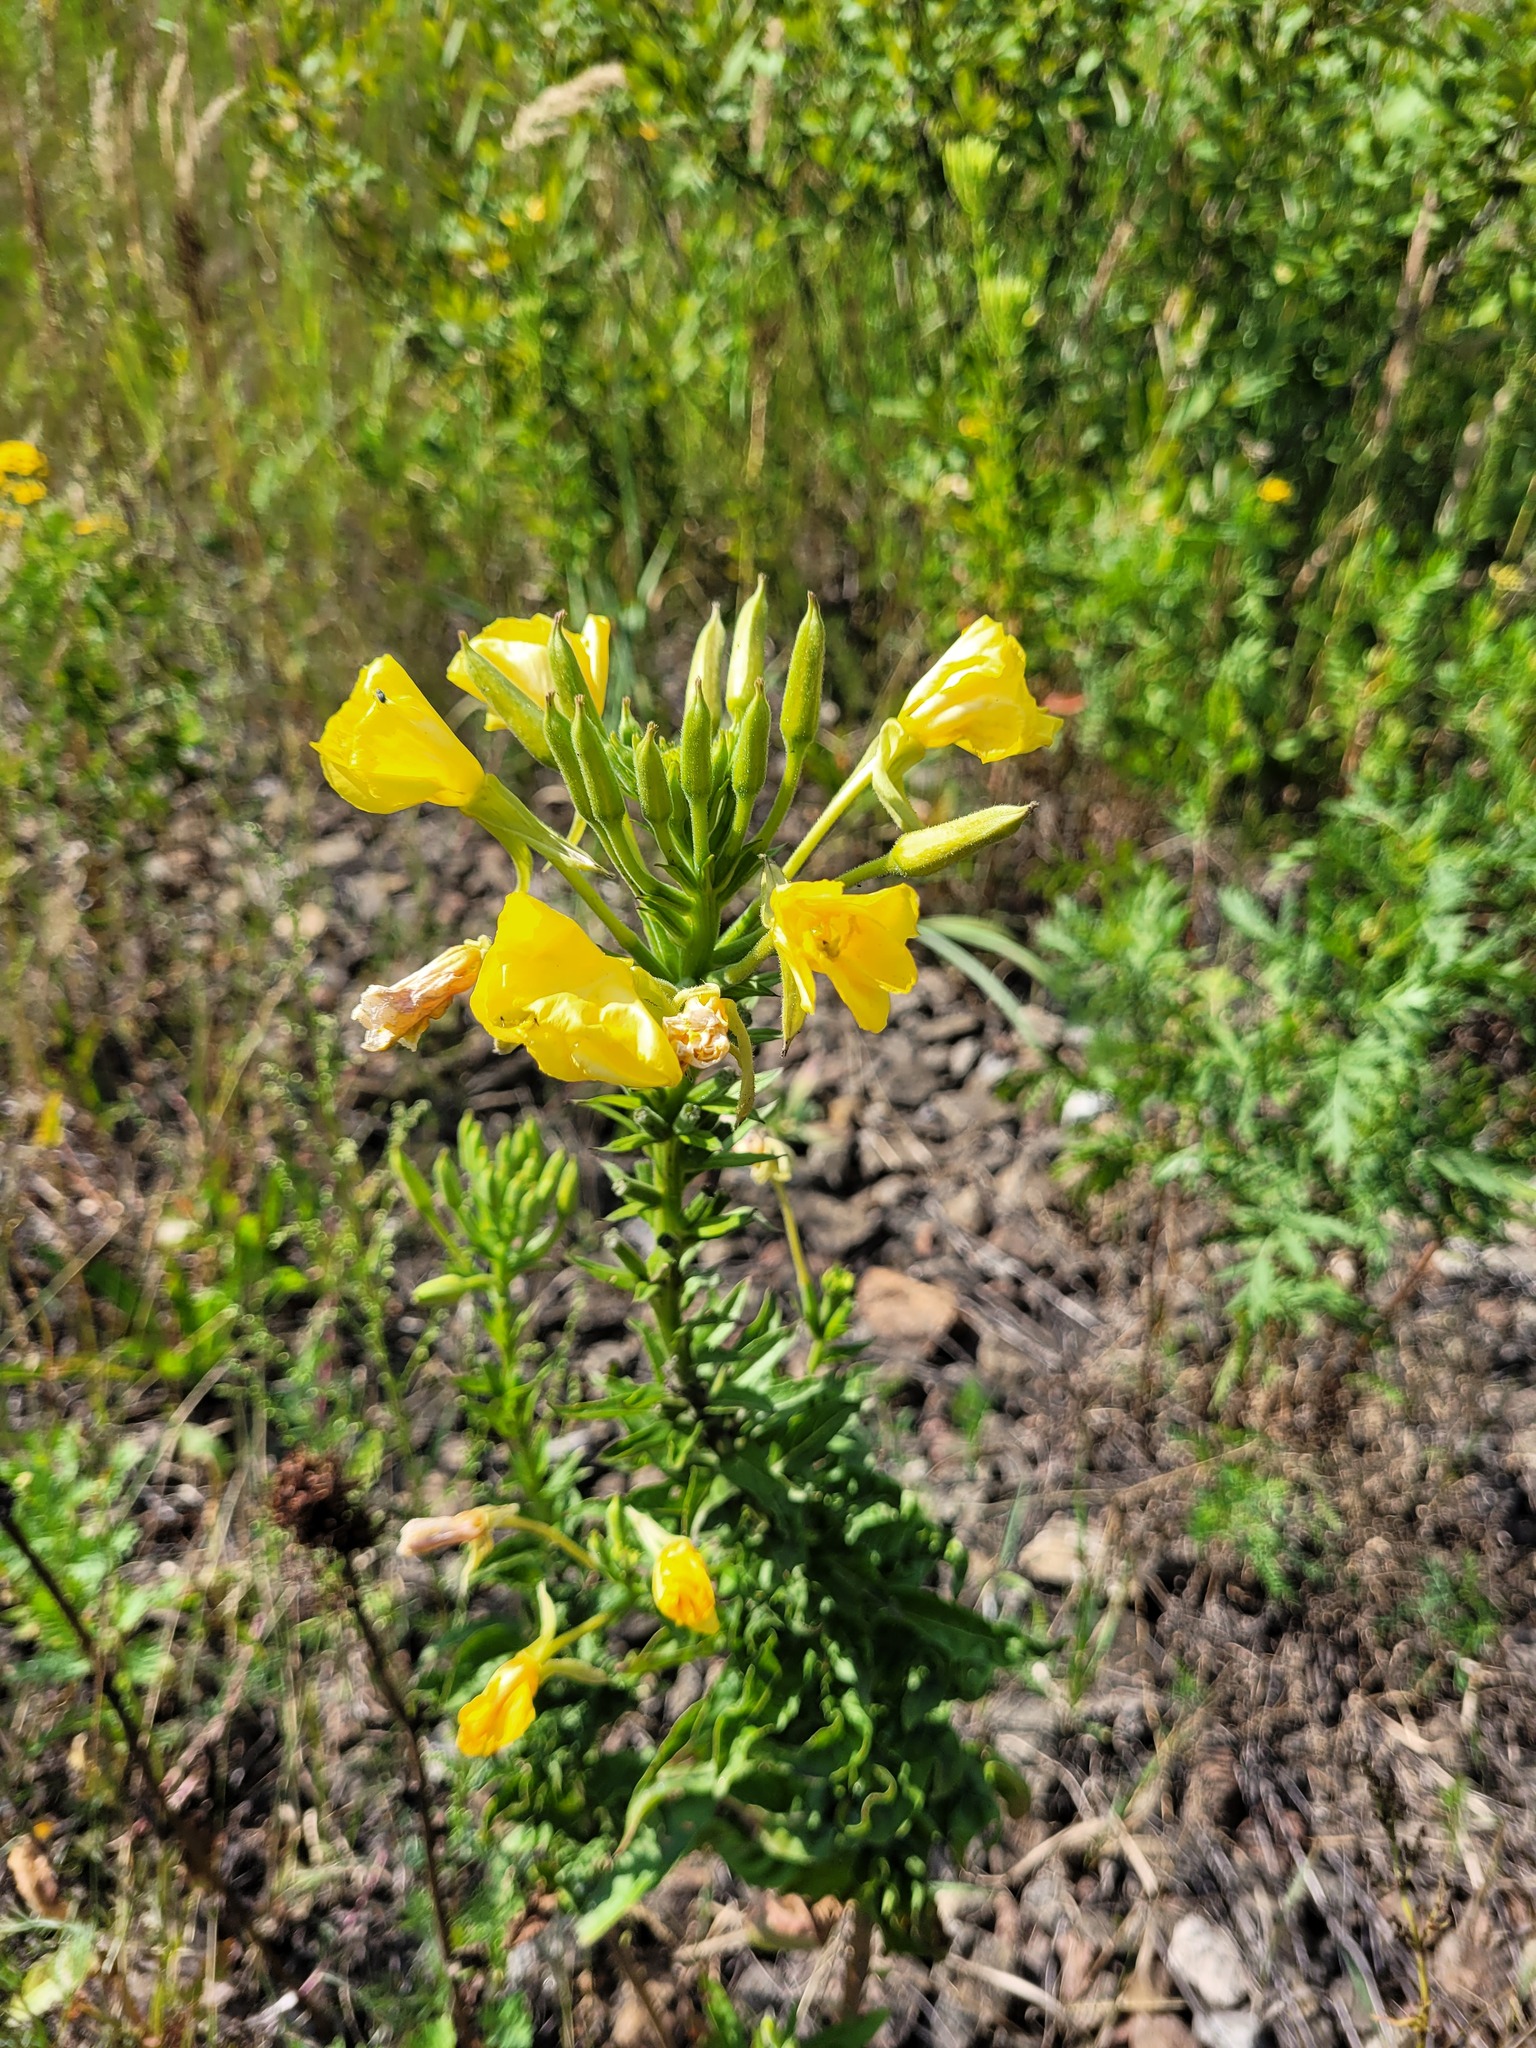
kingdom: Plantae
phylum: Tracheophyta
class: Magnoliopsida
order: Myrtales
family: Onagraceae
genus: Oenothera
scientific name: Oenothera biennis
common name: Common evening-primrose
